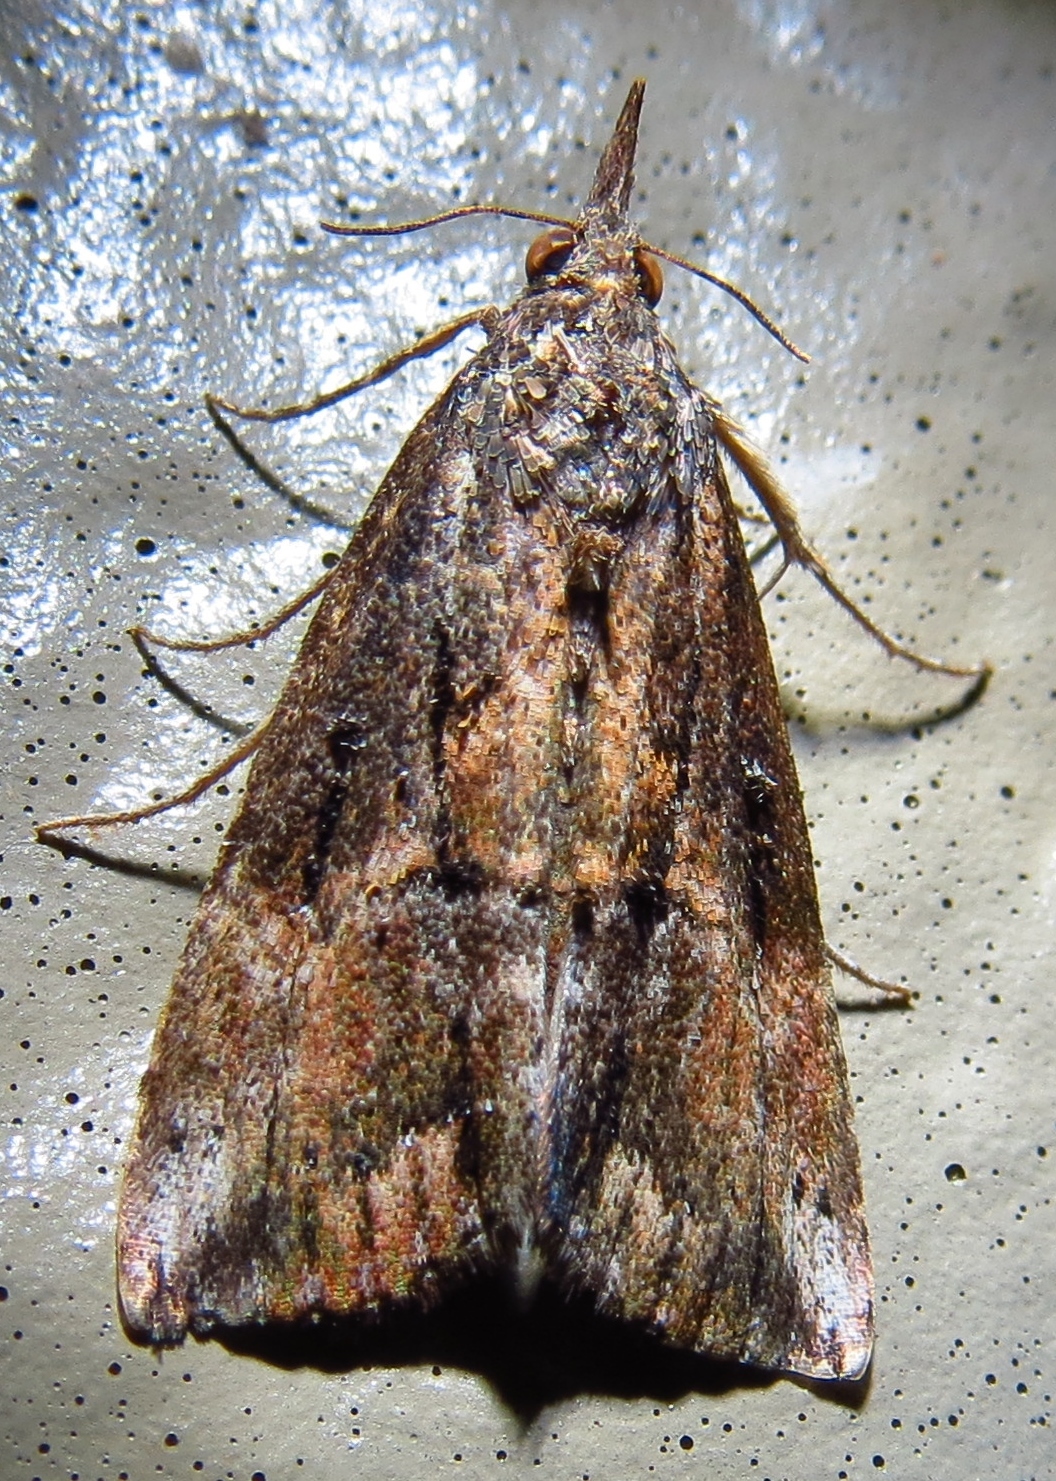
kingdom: Animalia
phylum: Arthropoda
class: Insecta
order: Lepidoptera
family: Erebidae
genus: Hypena
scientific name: Hypena scabra
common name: Green cloverworm
